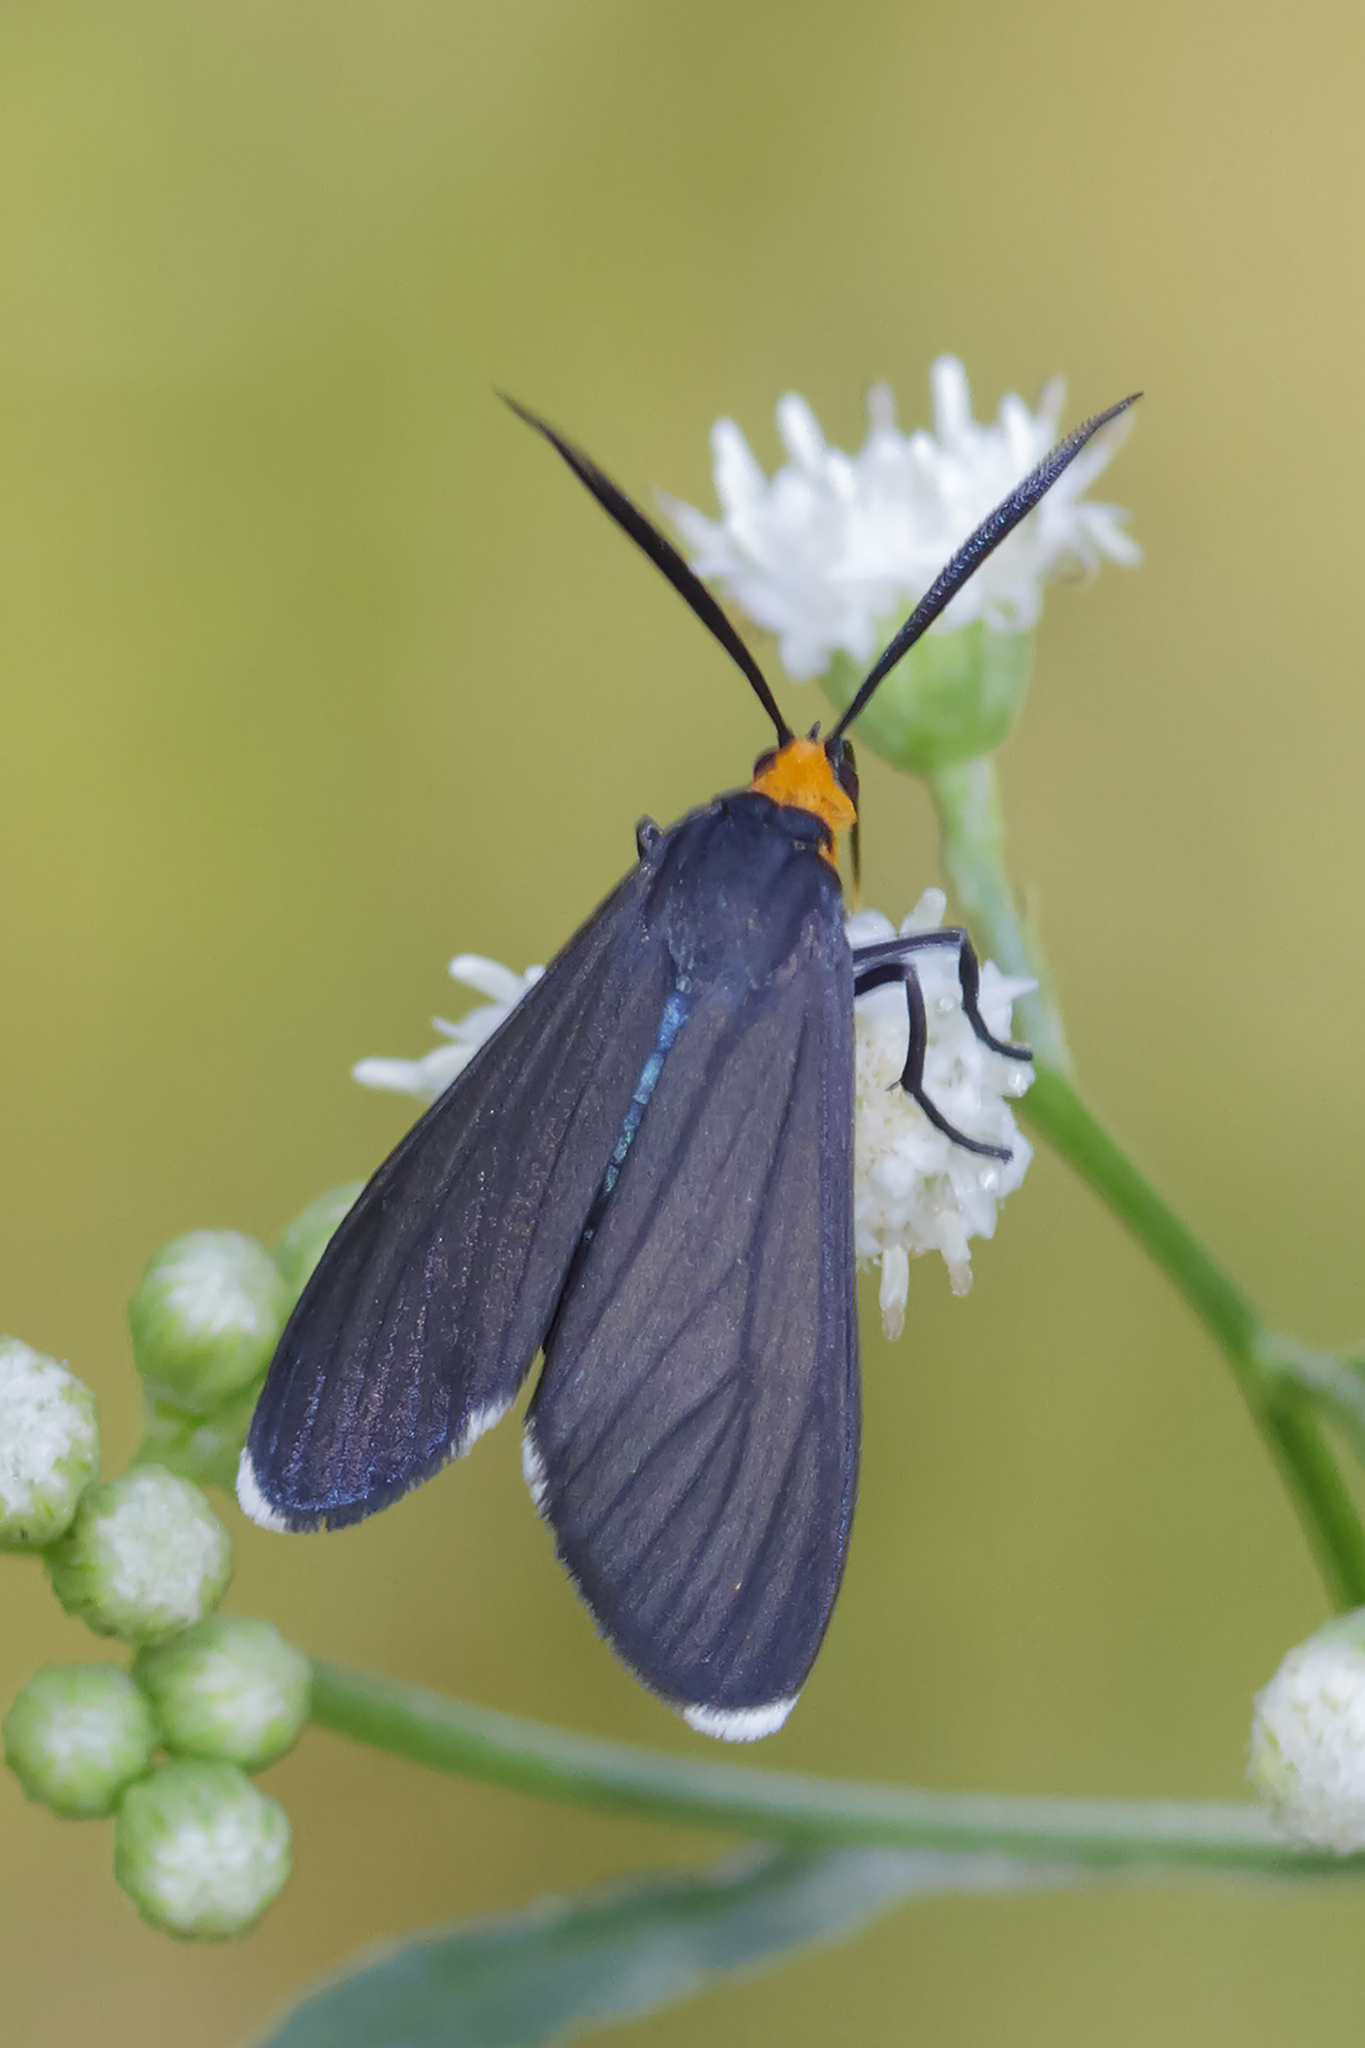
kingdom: Animalia
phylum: Arthropoda
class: Insecta
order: Lepidoptera
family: Erebidae
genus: Ctenucha
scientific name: Ctenucha rubriceps
